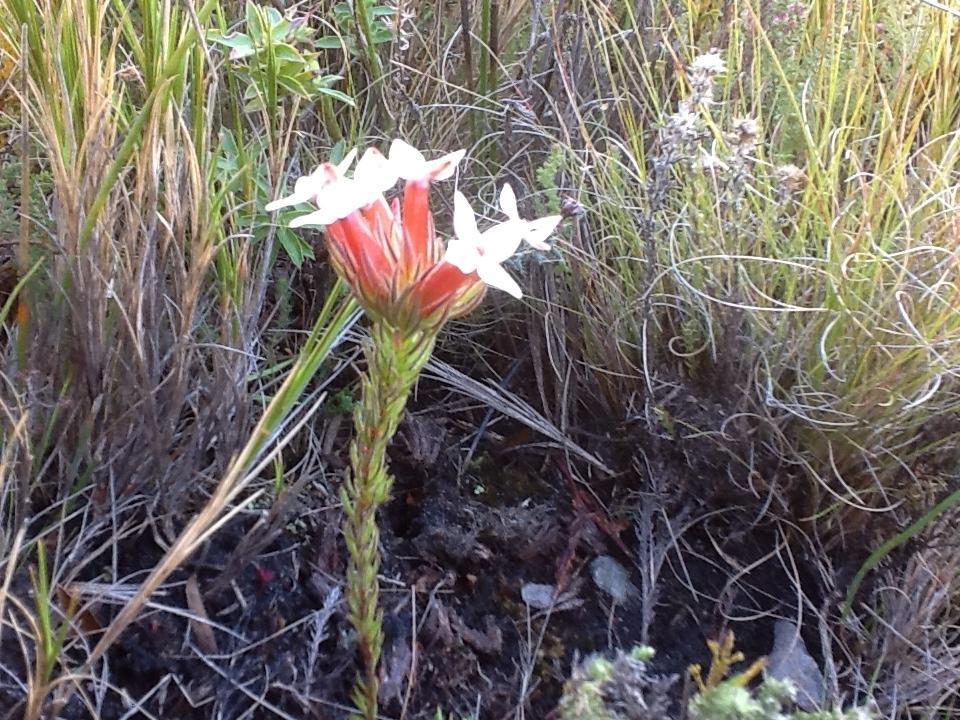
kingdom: Plantae
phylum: Tracheophyta
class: Magnoliopsida
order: Ericales
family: Ericaceae
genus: Erica
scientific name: Erica vallis-gratiae
